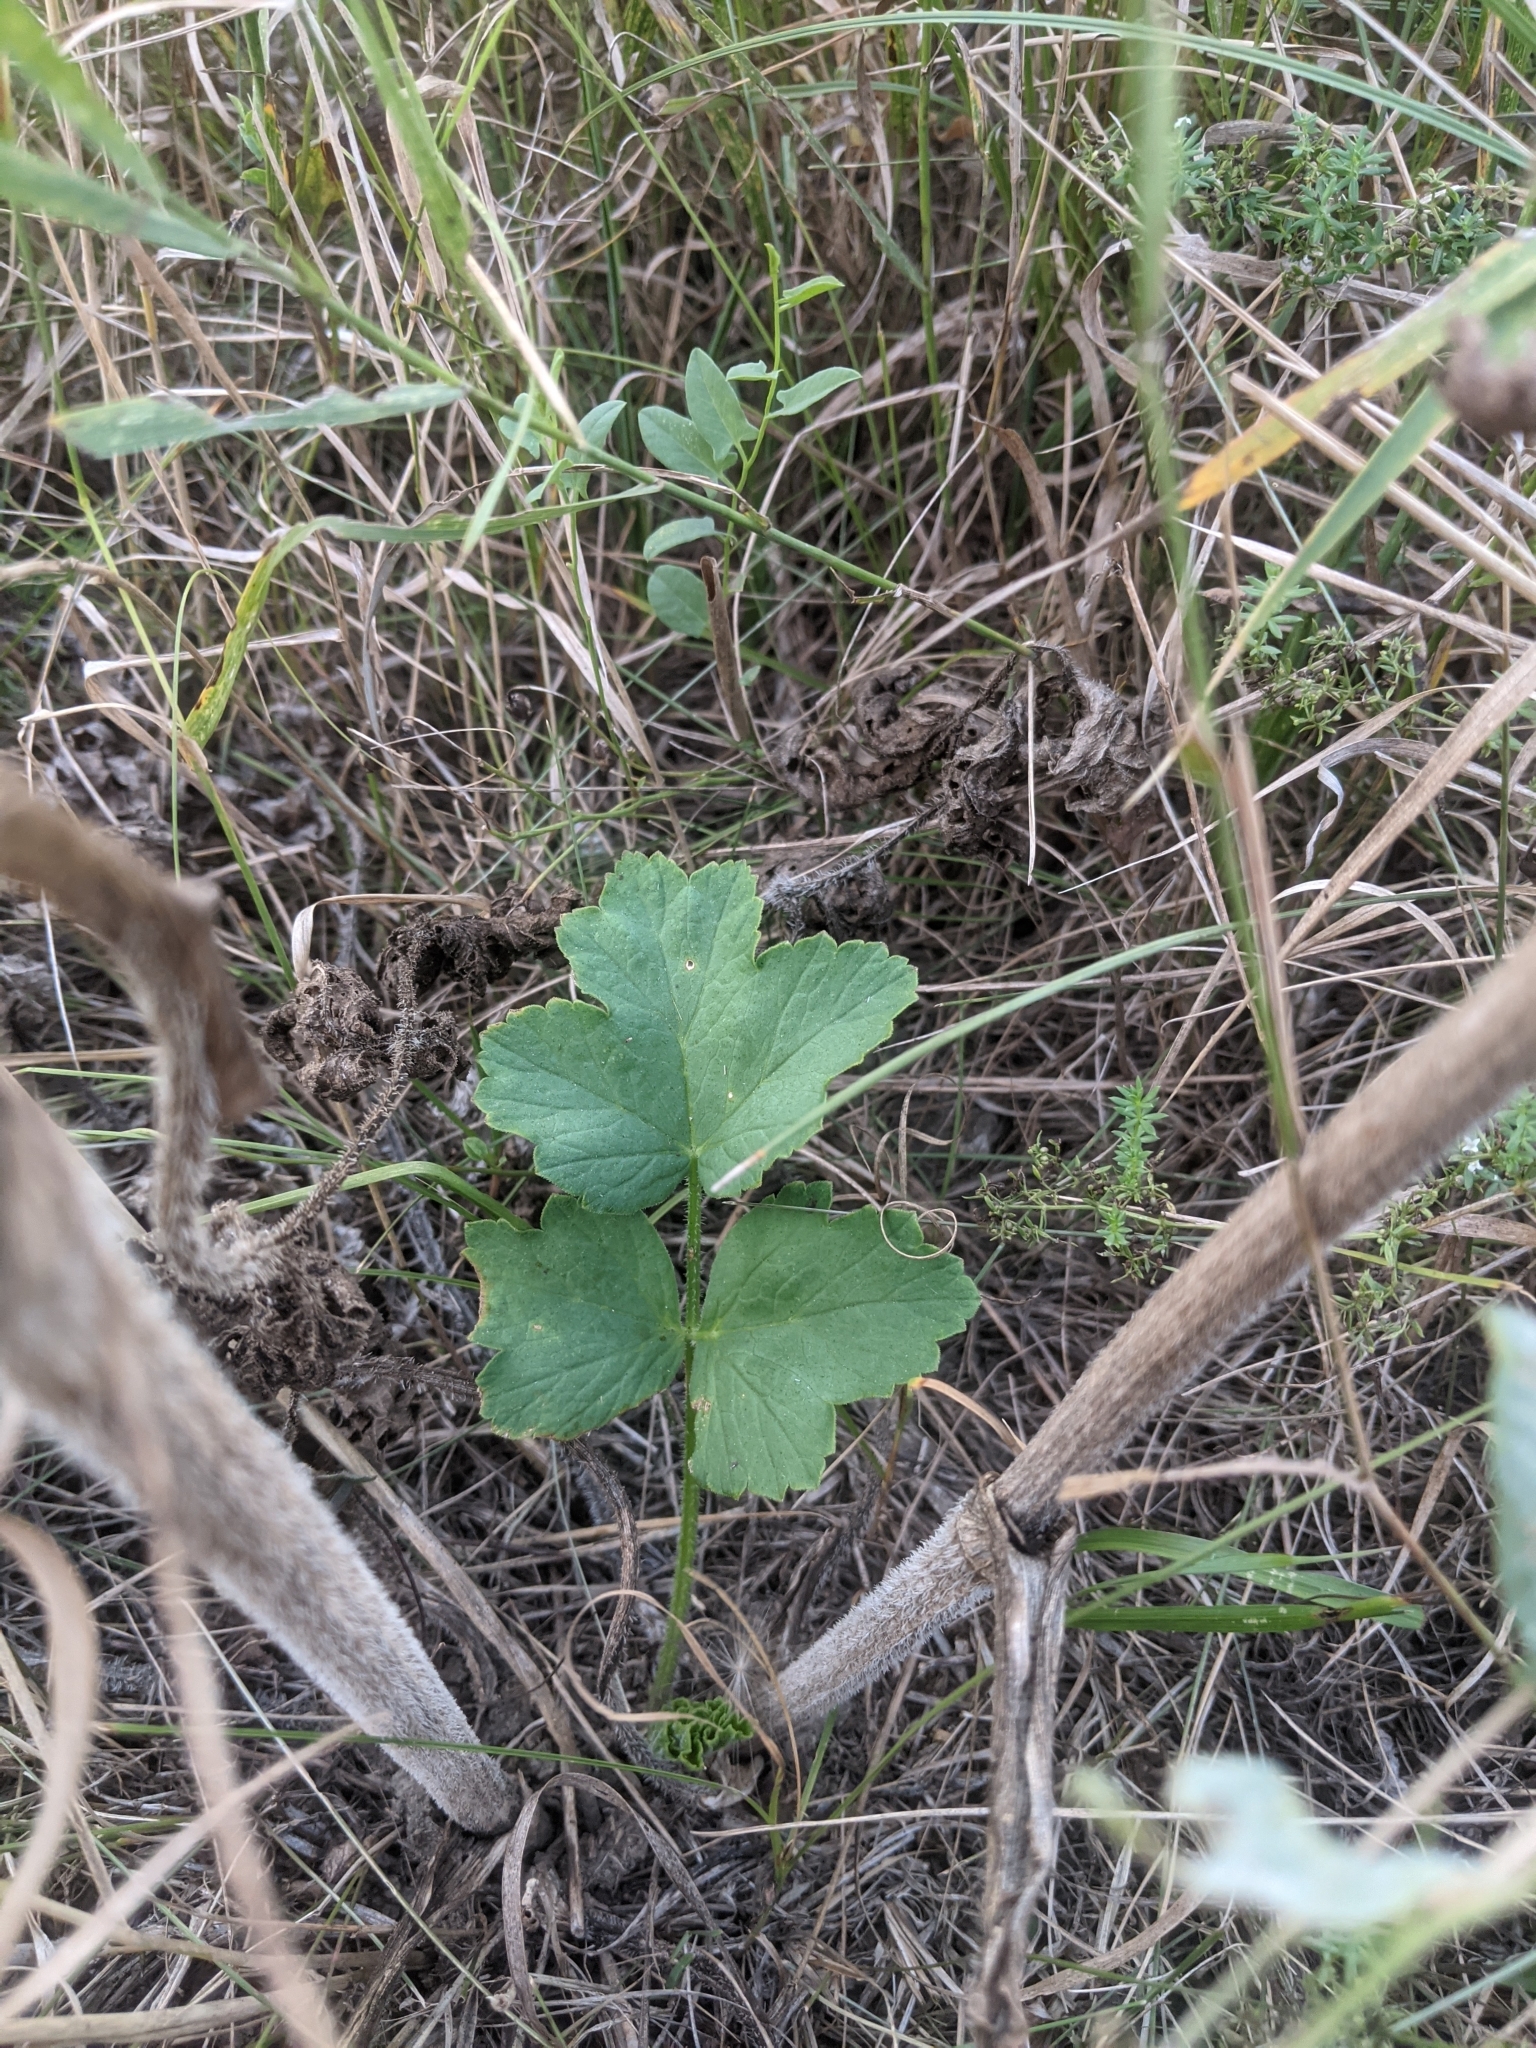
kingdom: Plantae
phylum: Tracheophyta
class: Magnoliopsida
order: Apiales
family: Apiaceae
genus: Heracleum
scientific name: Heracleum sphondylium
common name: Hogweed
